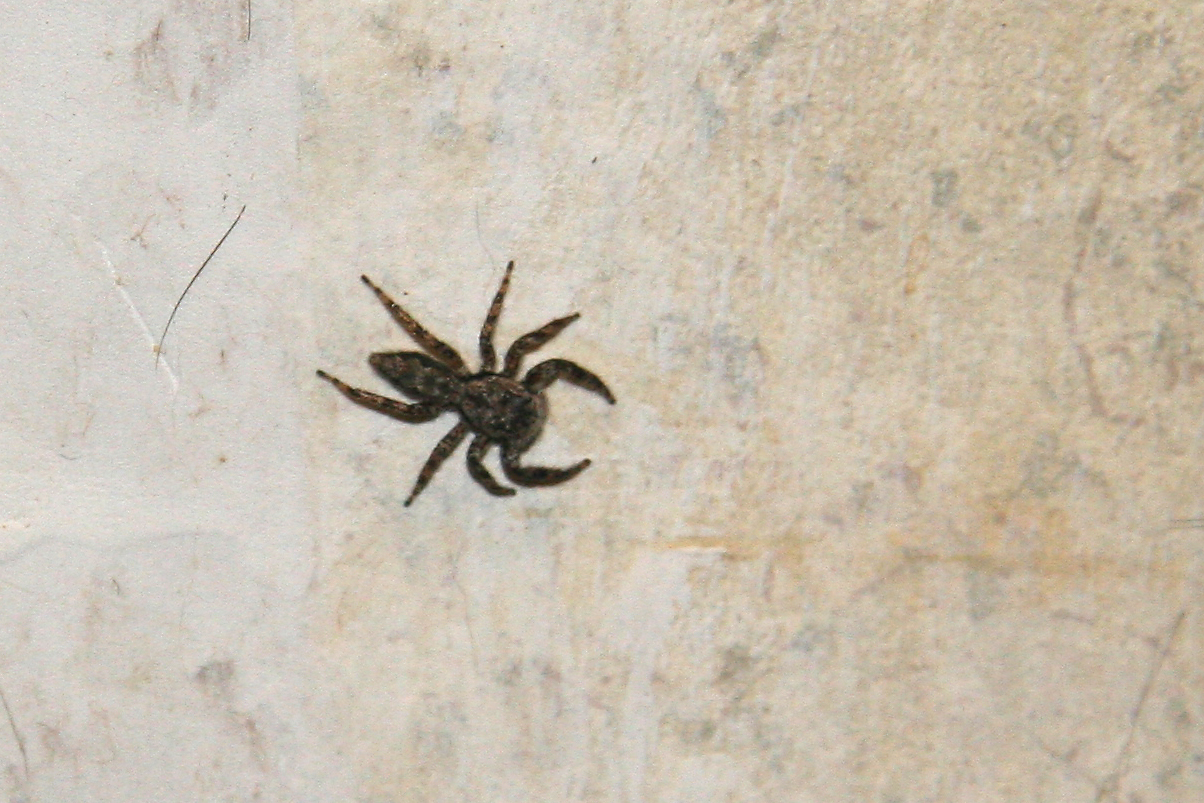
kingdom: Animalia
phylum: Arthropoda
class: Arachnida
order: Araneae
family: Salticidae
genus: Platycryptus
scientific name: Platycryptus undatus
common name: Tan jumping spider
